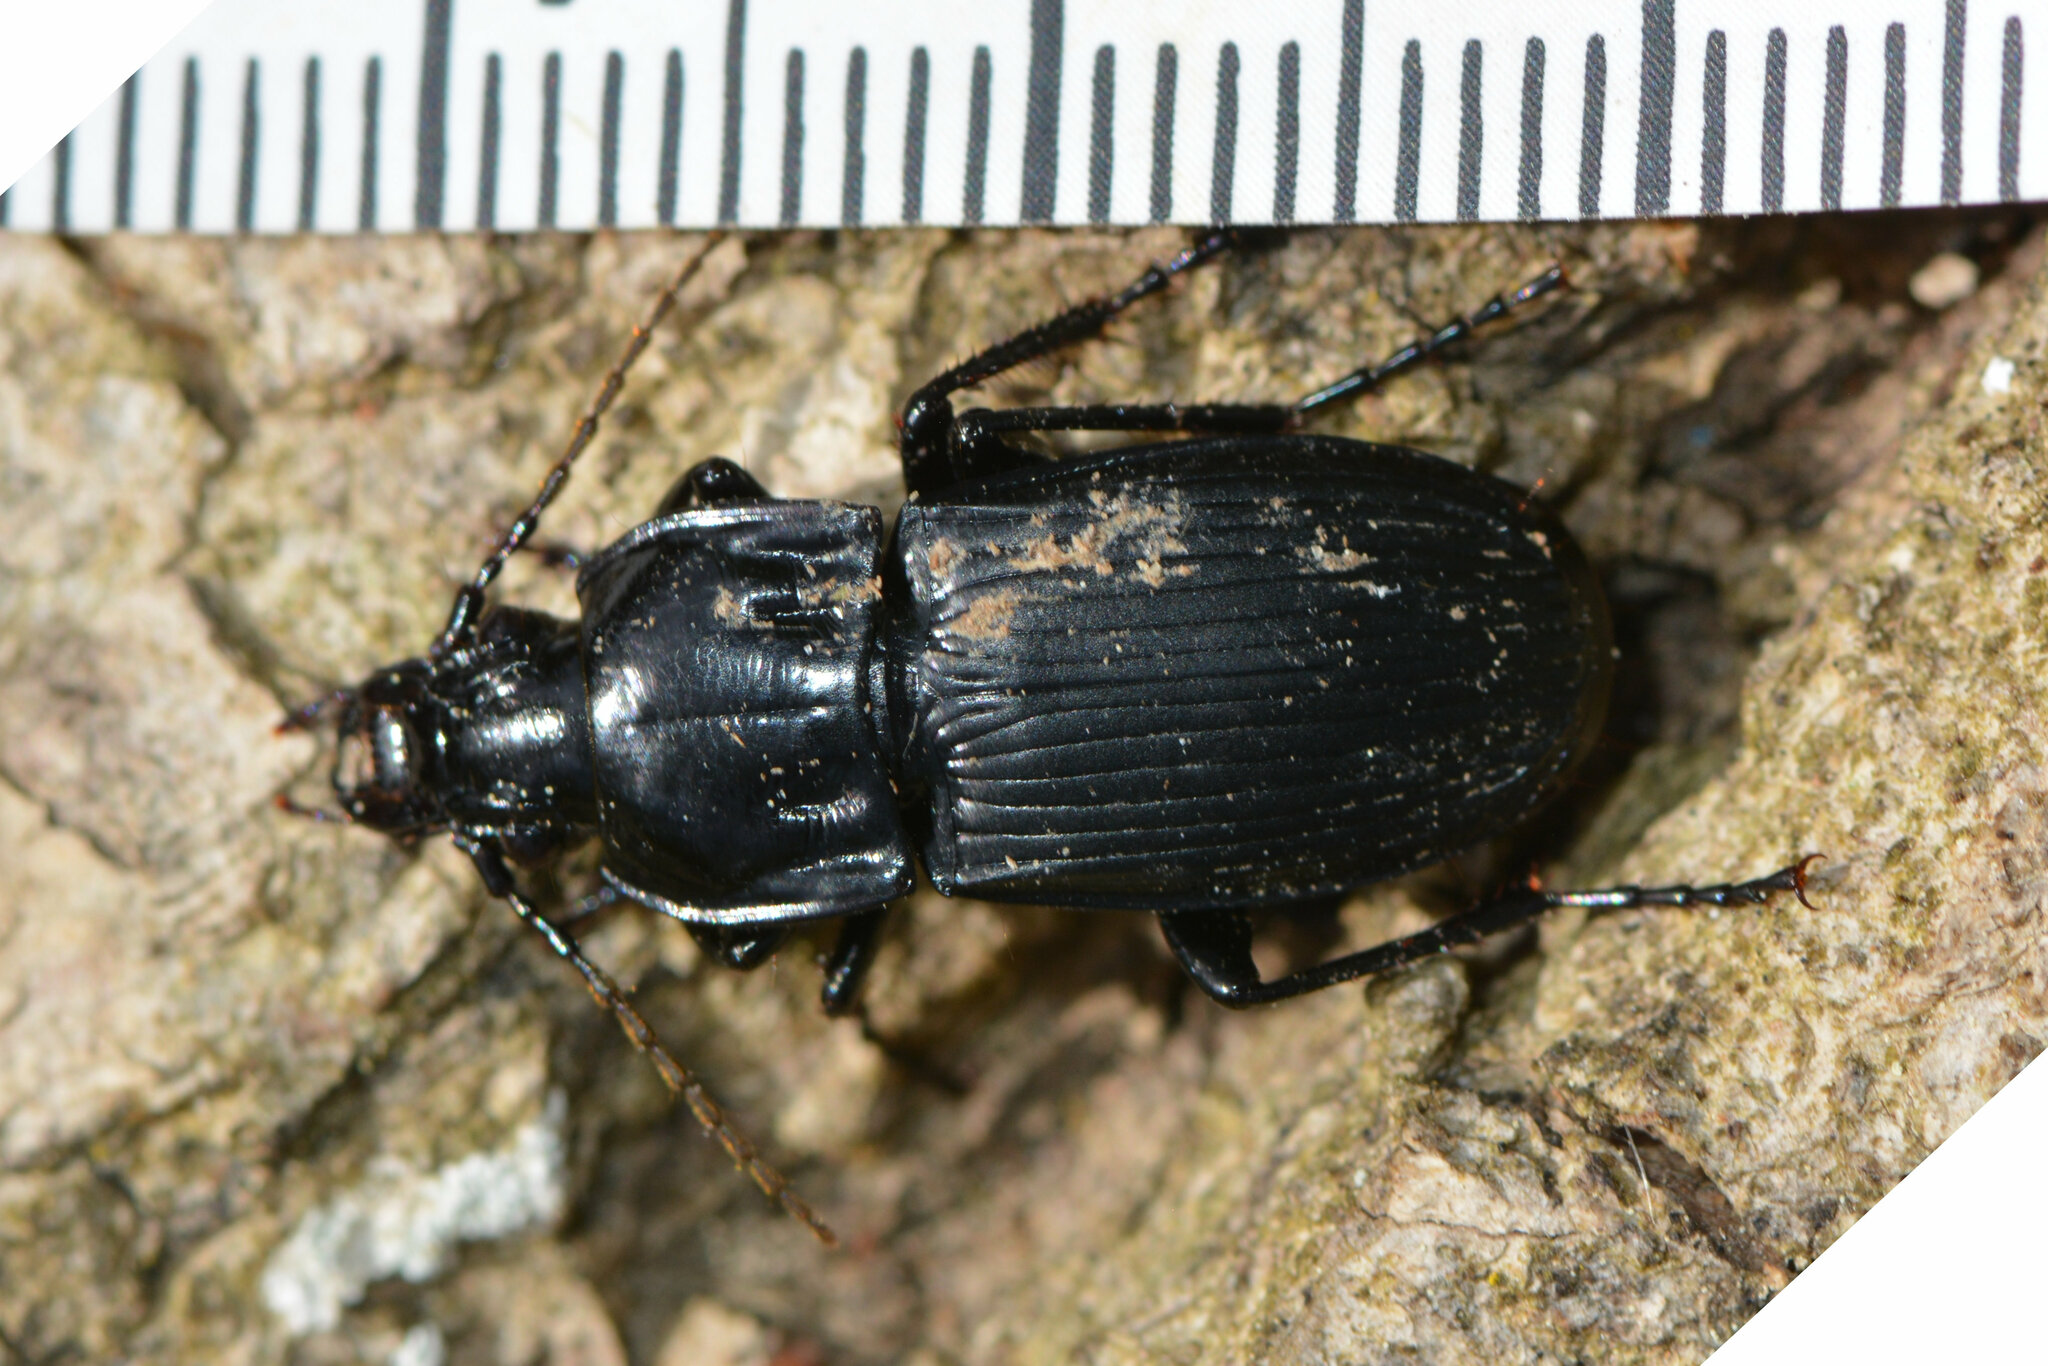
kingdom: Animalia
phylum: Arthropoda
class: Insecta
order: Coleoptera
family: Carabidae
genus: Abax
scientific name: Abax parallelepipedus
